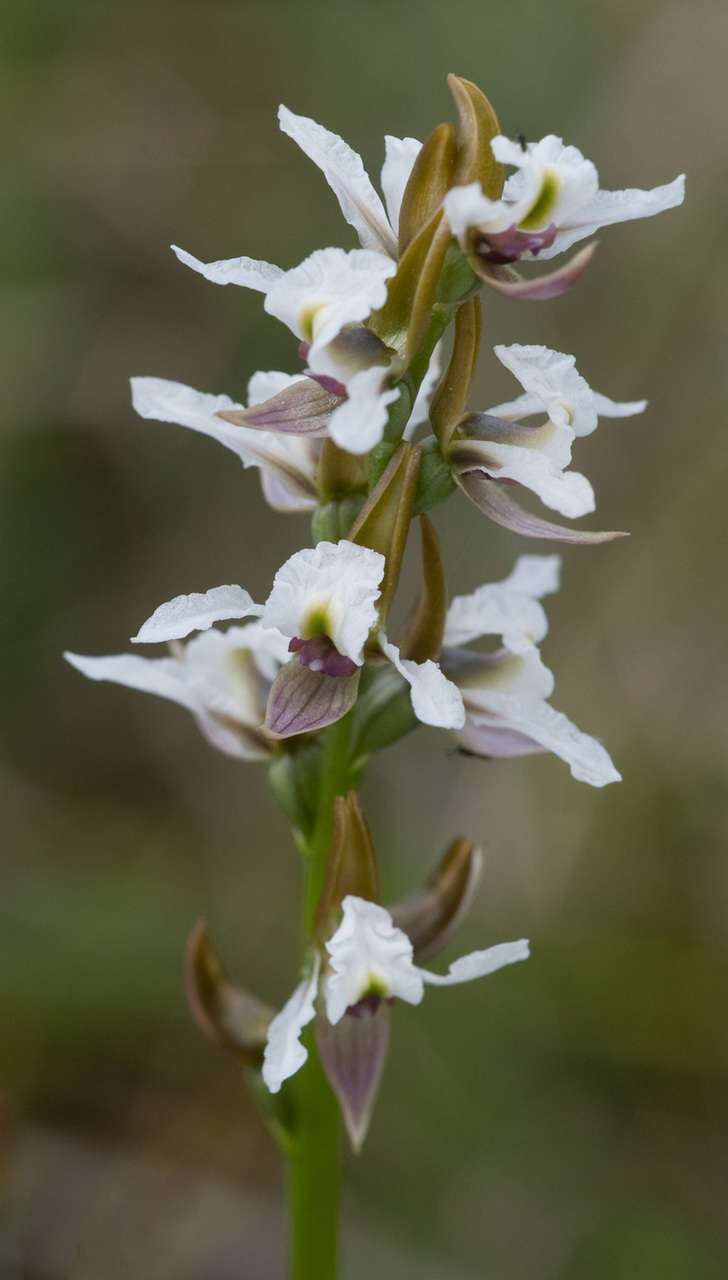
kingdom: Plantae
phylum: Tracheophyta
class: Liliopsida
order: Asparagales
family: Orchidaceae
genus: Prasophyllum
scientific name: Prasophyllum suttonii
